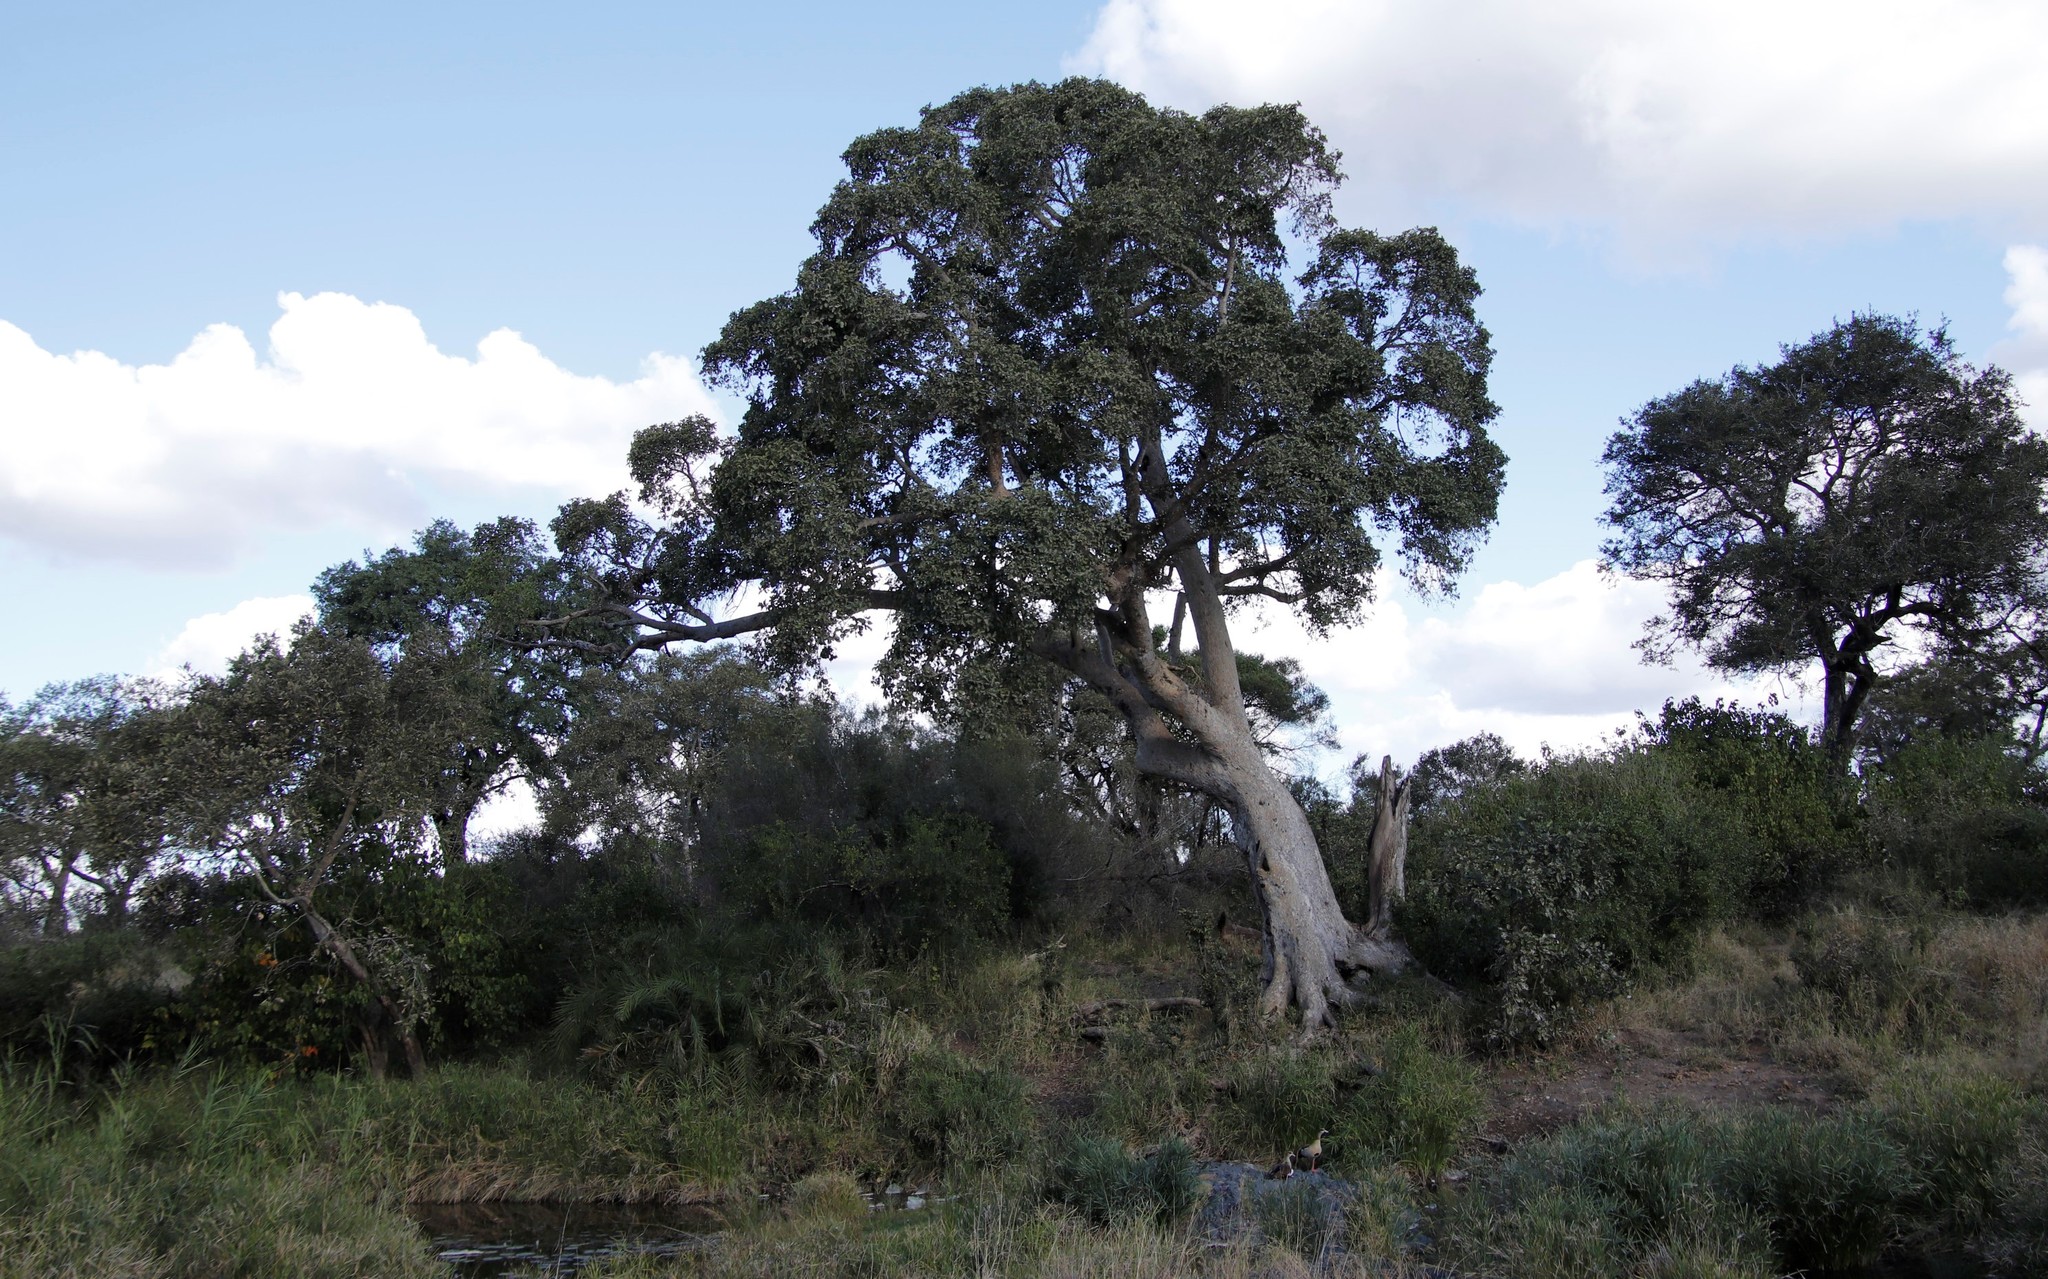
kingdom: Plantae
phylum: Tracheophyta
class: Magnoliopsida
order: Rosales
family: Moraceae
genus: Ficus
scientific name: Ficus sycomorus
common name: Sycomore
